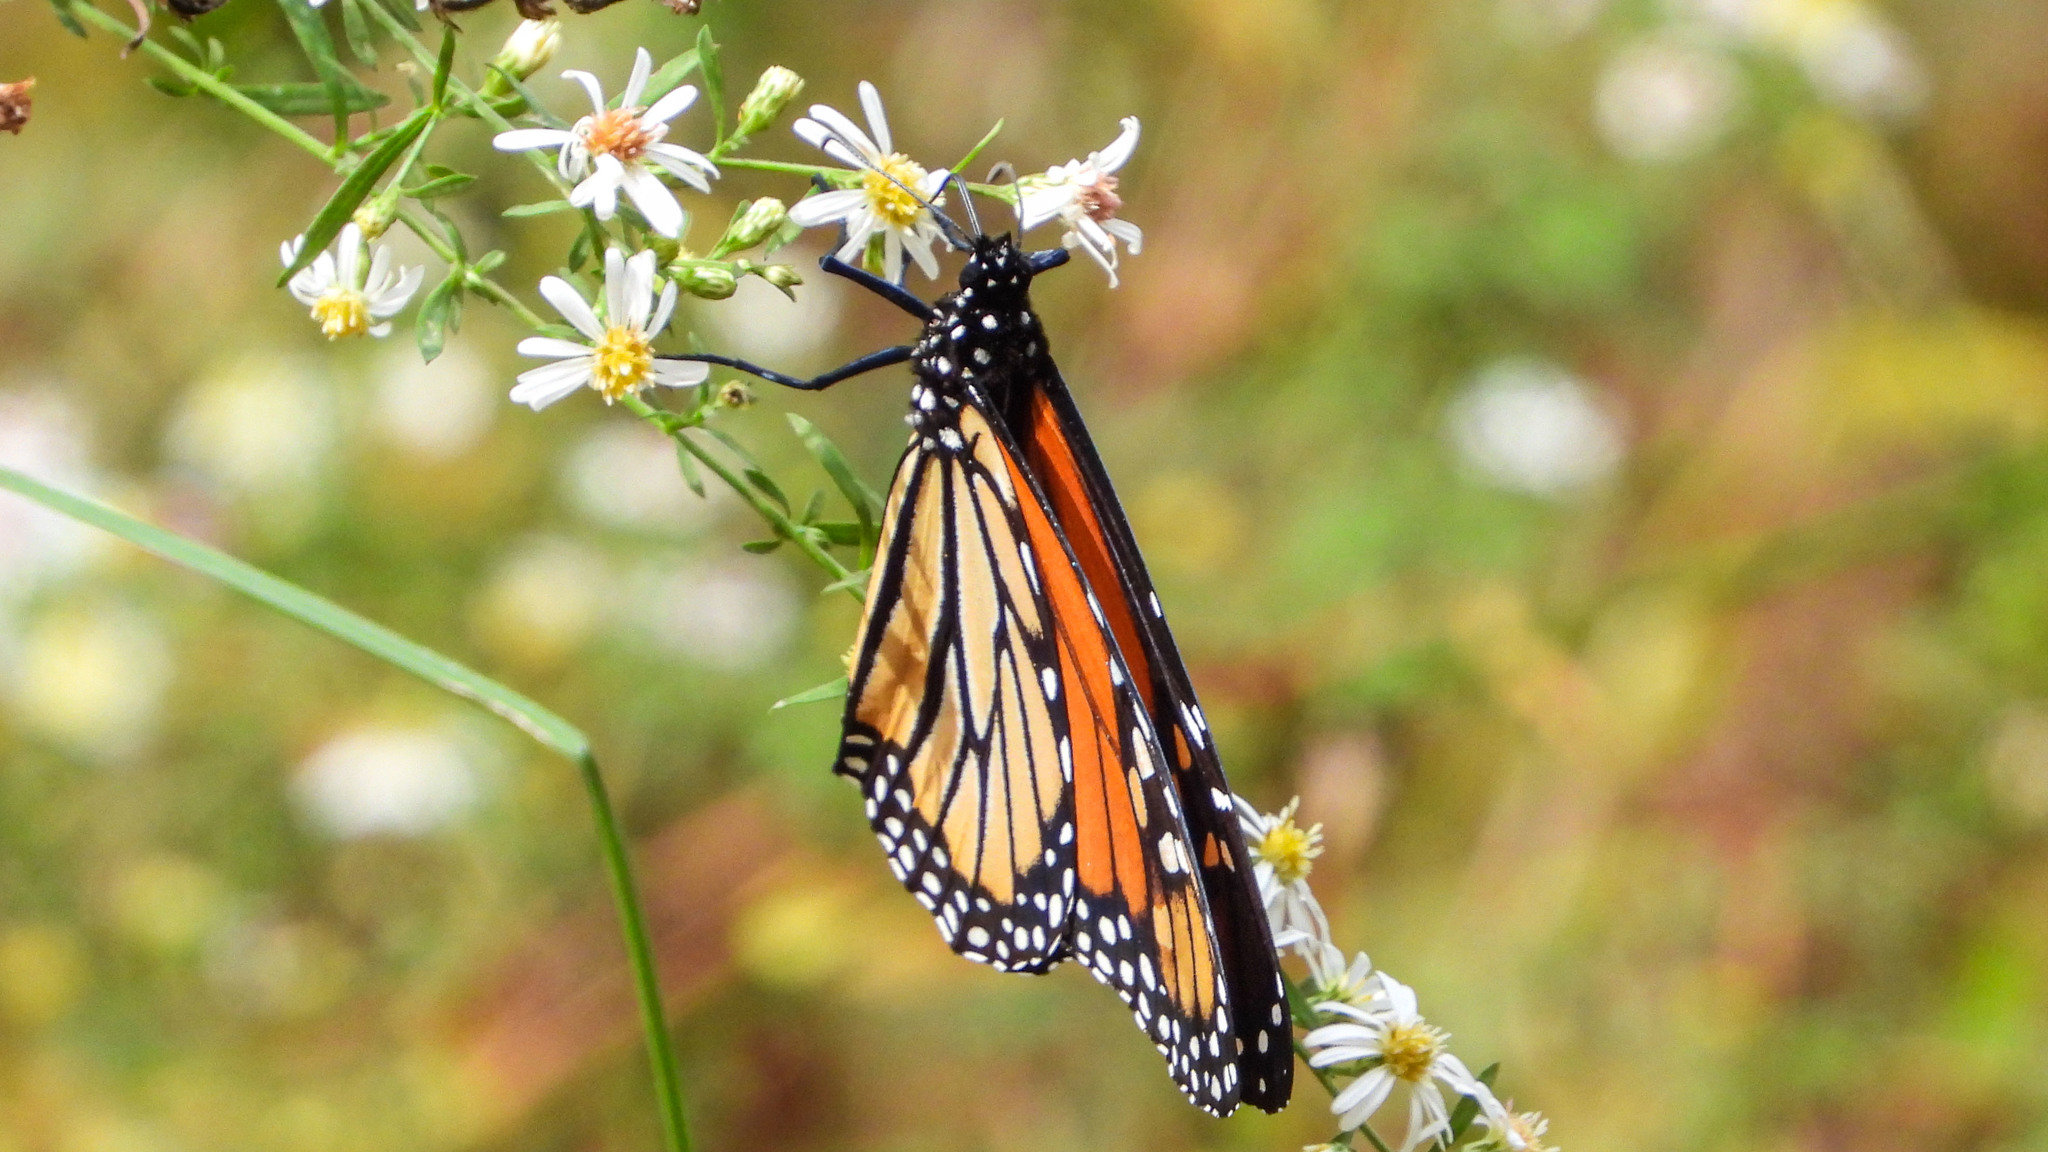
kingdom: Animalia
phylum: Arthropoda
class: Insecta
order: Lepidoptera
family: Nymphalidae
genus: Danaus
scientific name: Danaus plexippus
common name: Monarch
